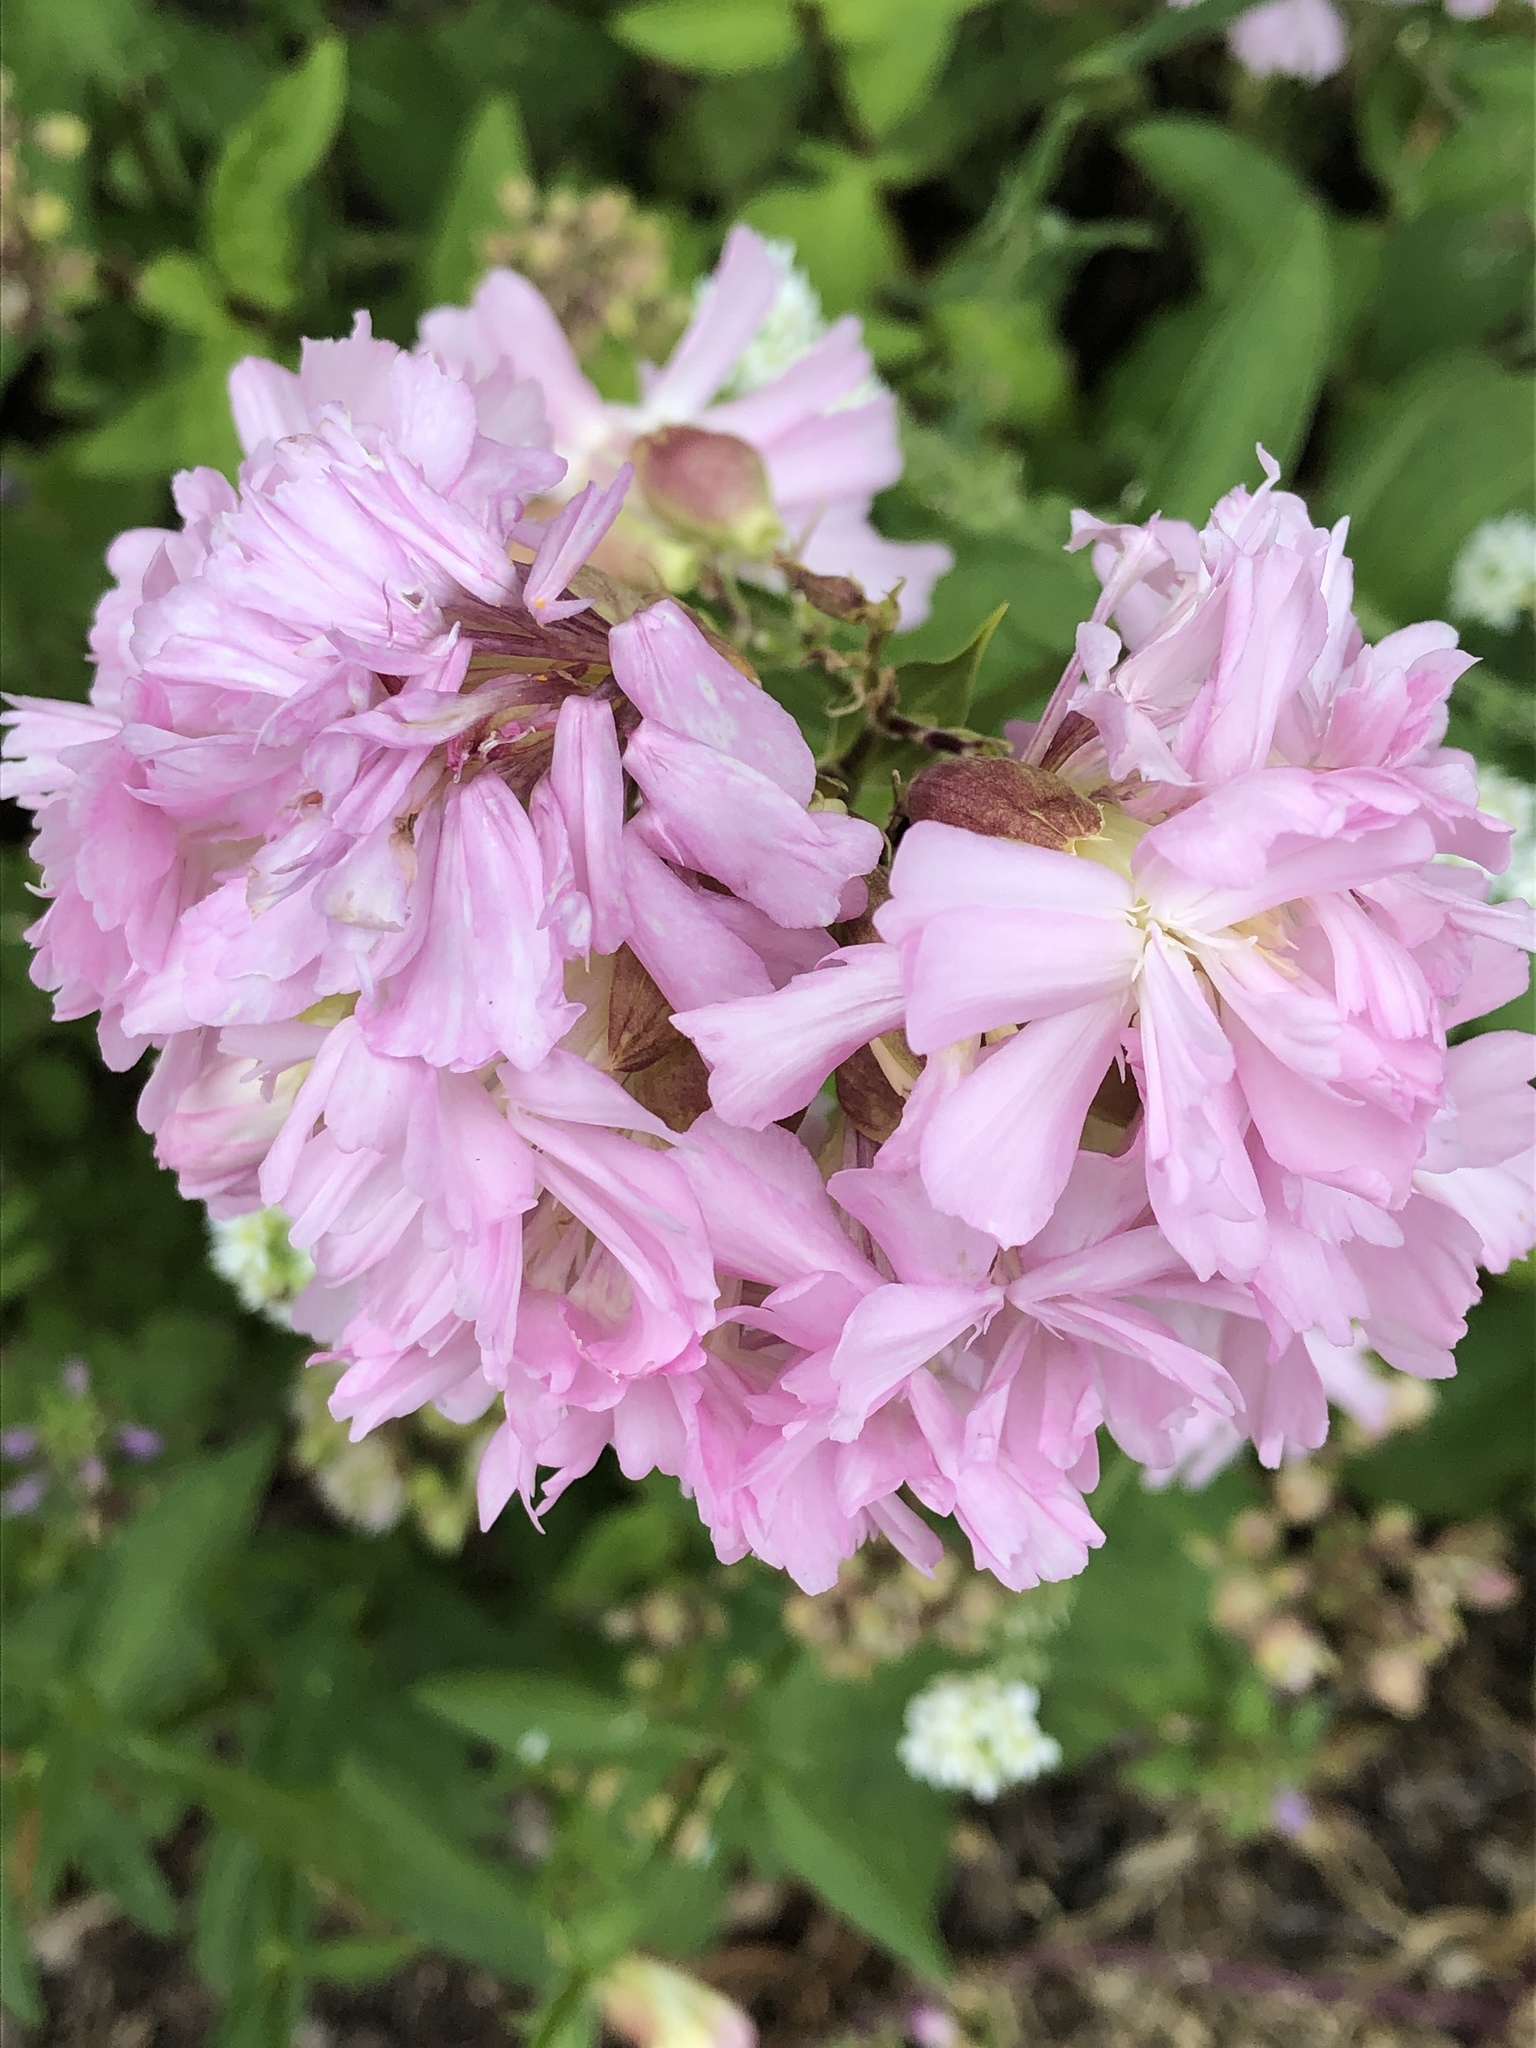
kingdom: Plantae
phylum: Tracheophyta
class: Magnoliopsida
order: Caryophyllales
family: Caryophyllaceae
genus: Saponaria
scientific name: Saponaria officinalis
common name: Soapwort
